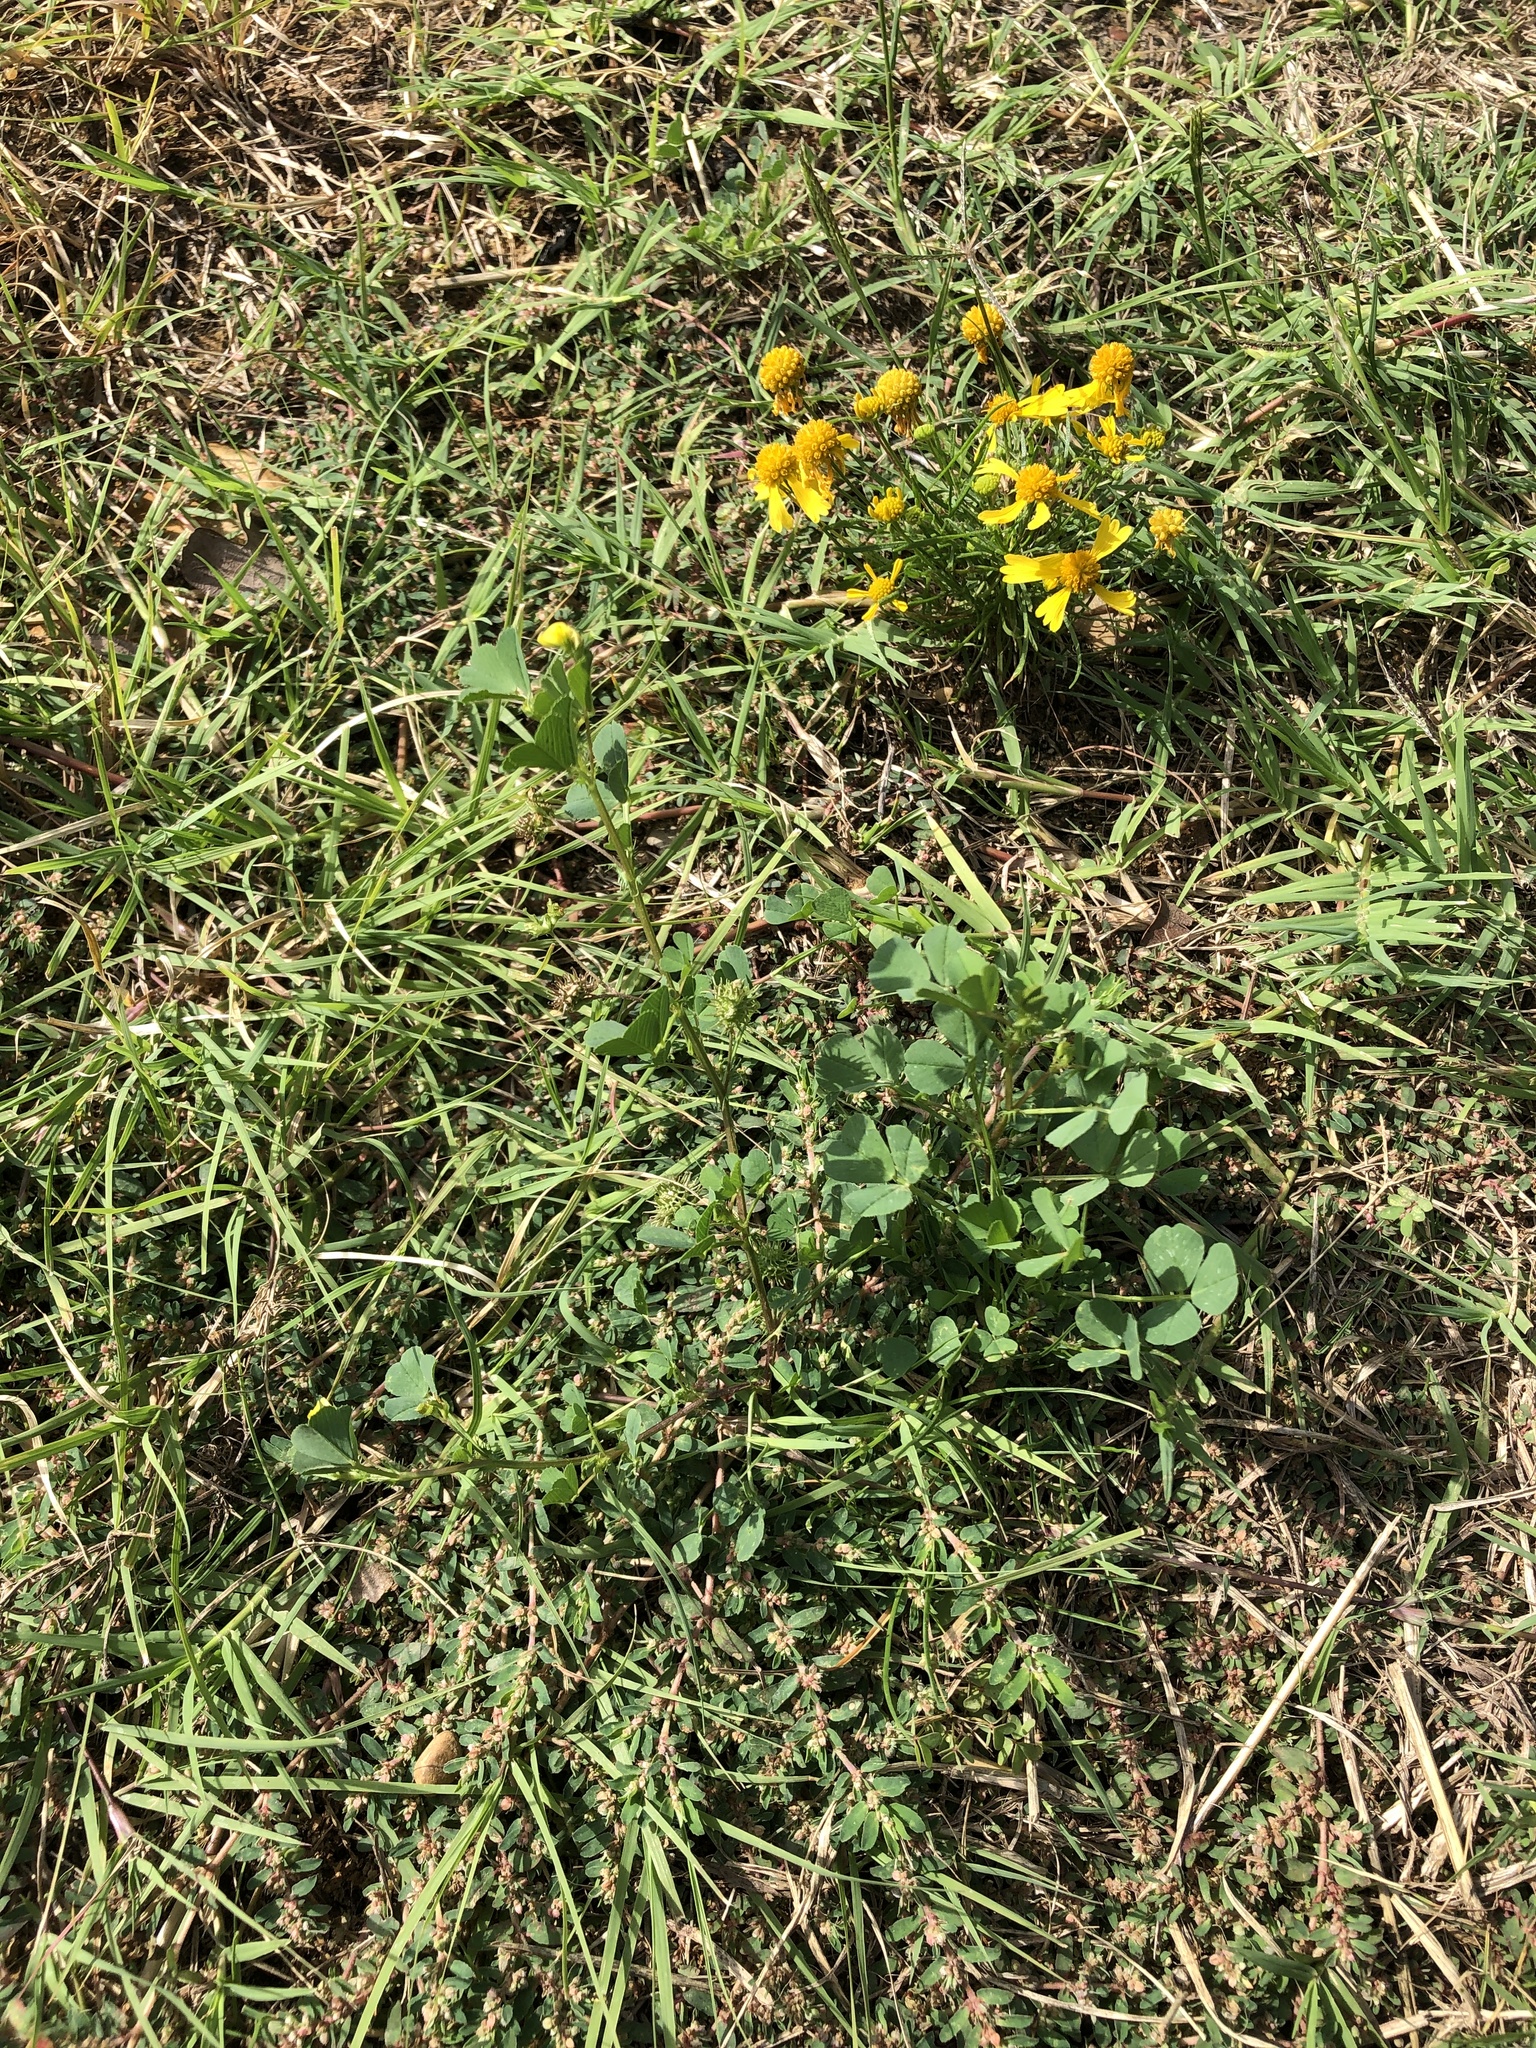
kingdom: Plantae
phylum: Tracheophyta
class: Magnoliopsida
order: Fabales
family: Fabaceae
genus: Medicago
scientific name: Medicago polymorpha
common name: Burclover
